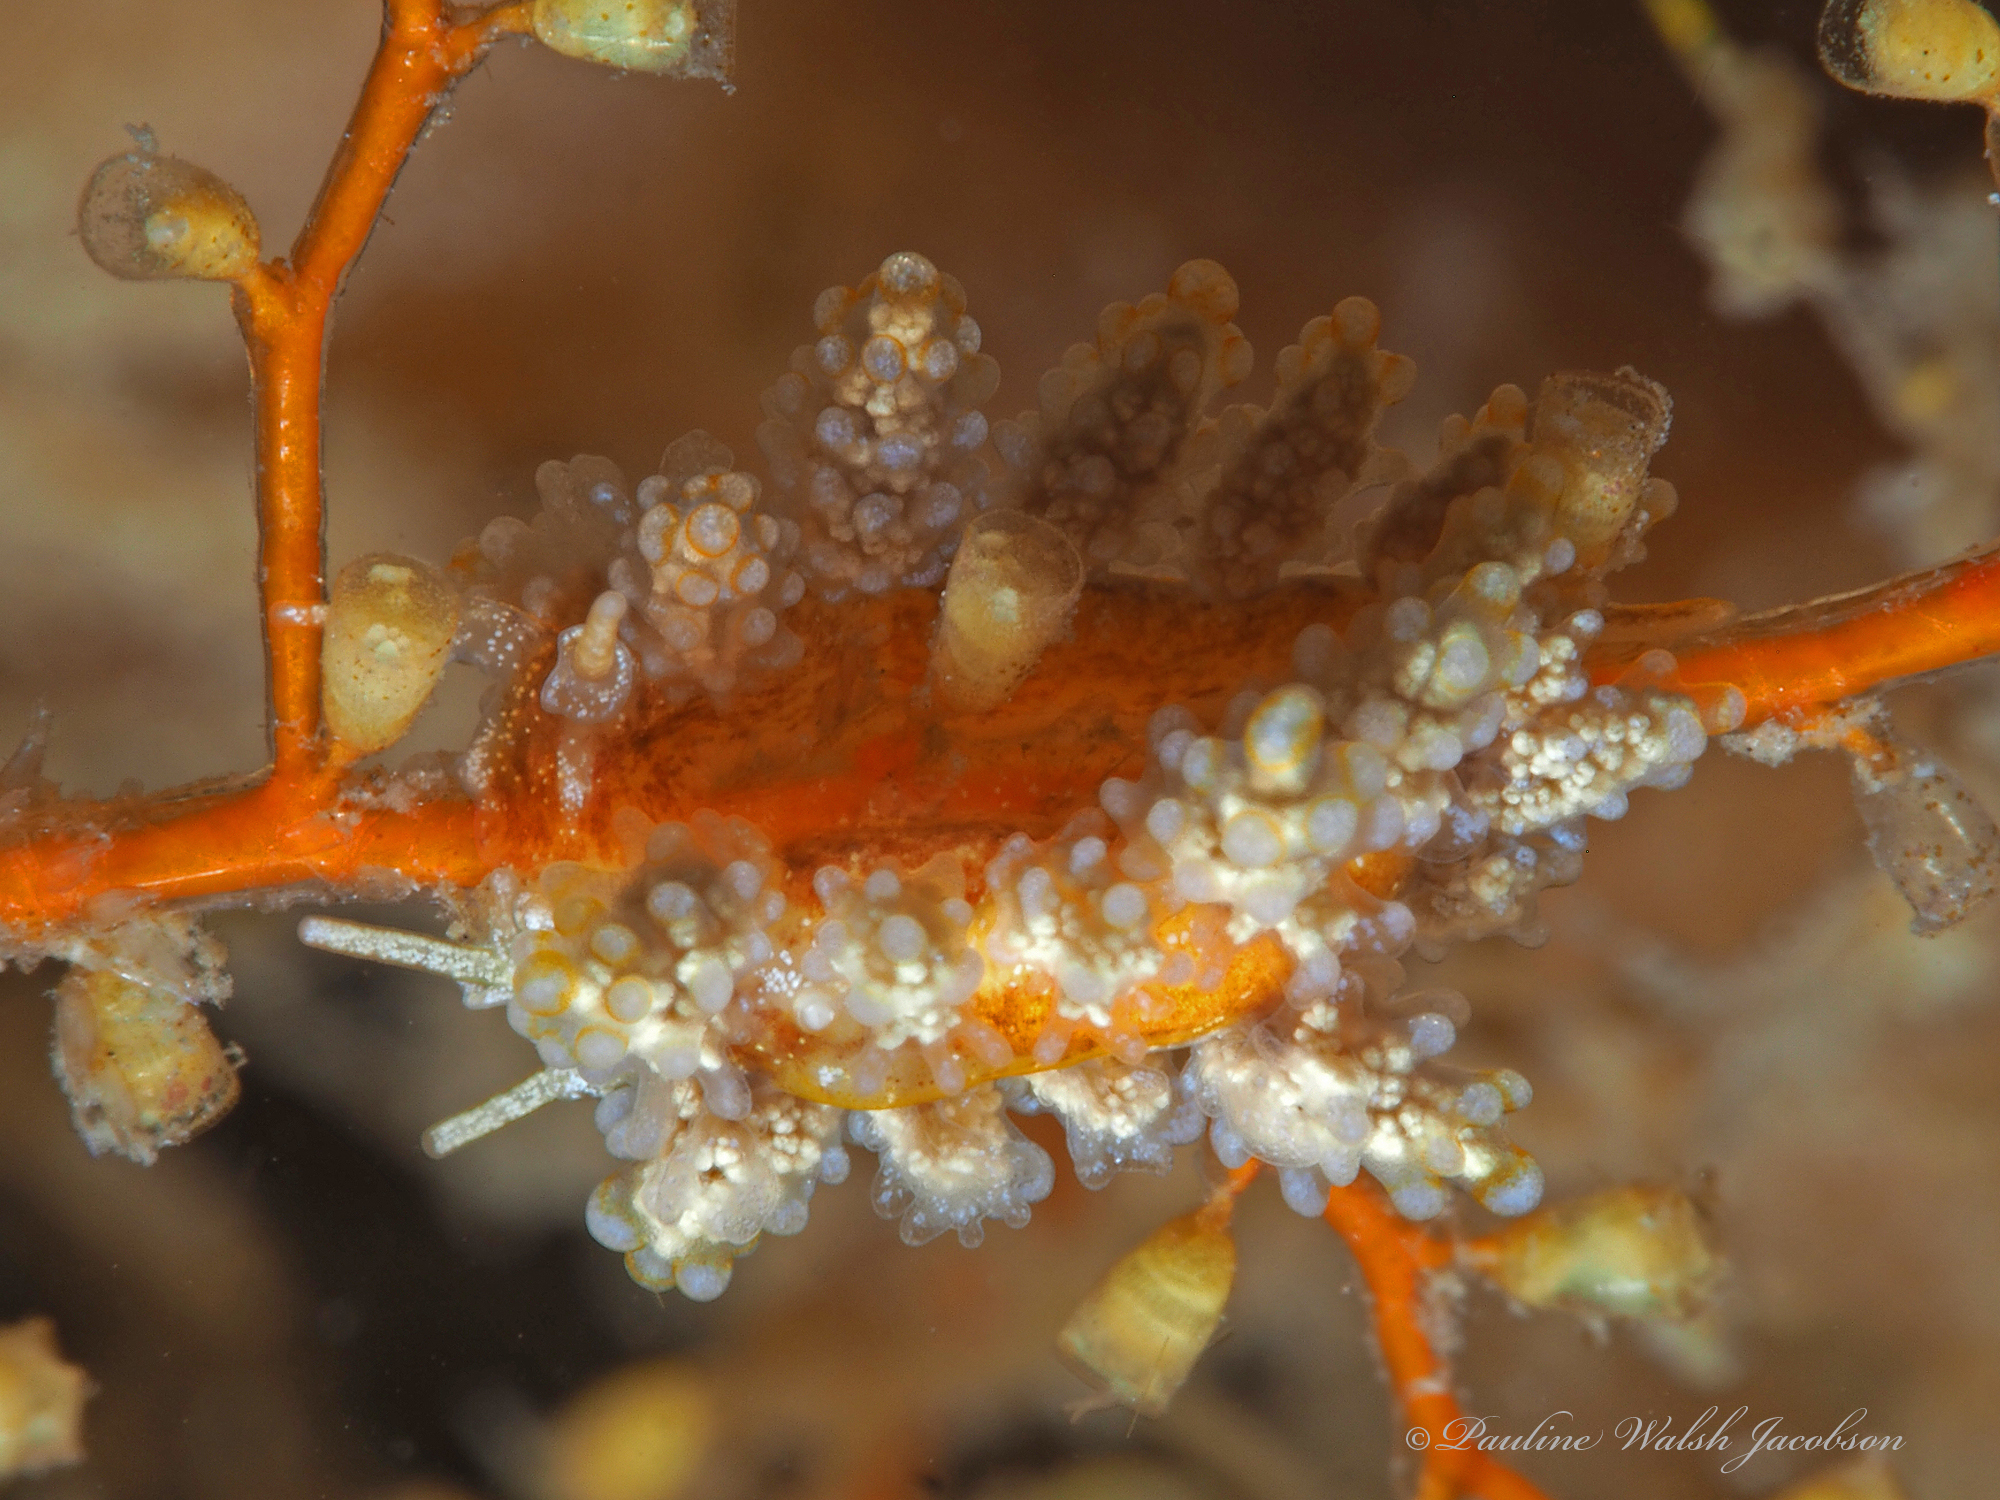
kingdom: Animalia
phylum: Mollusca
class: Gastropoda
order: Nudibranchia
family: Dotidae
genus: Doto
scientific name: Doto torrelavega
